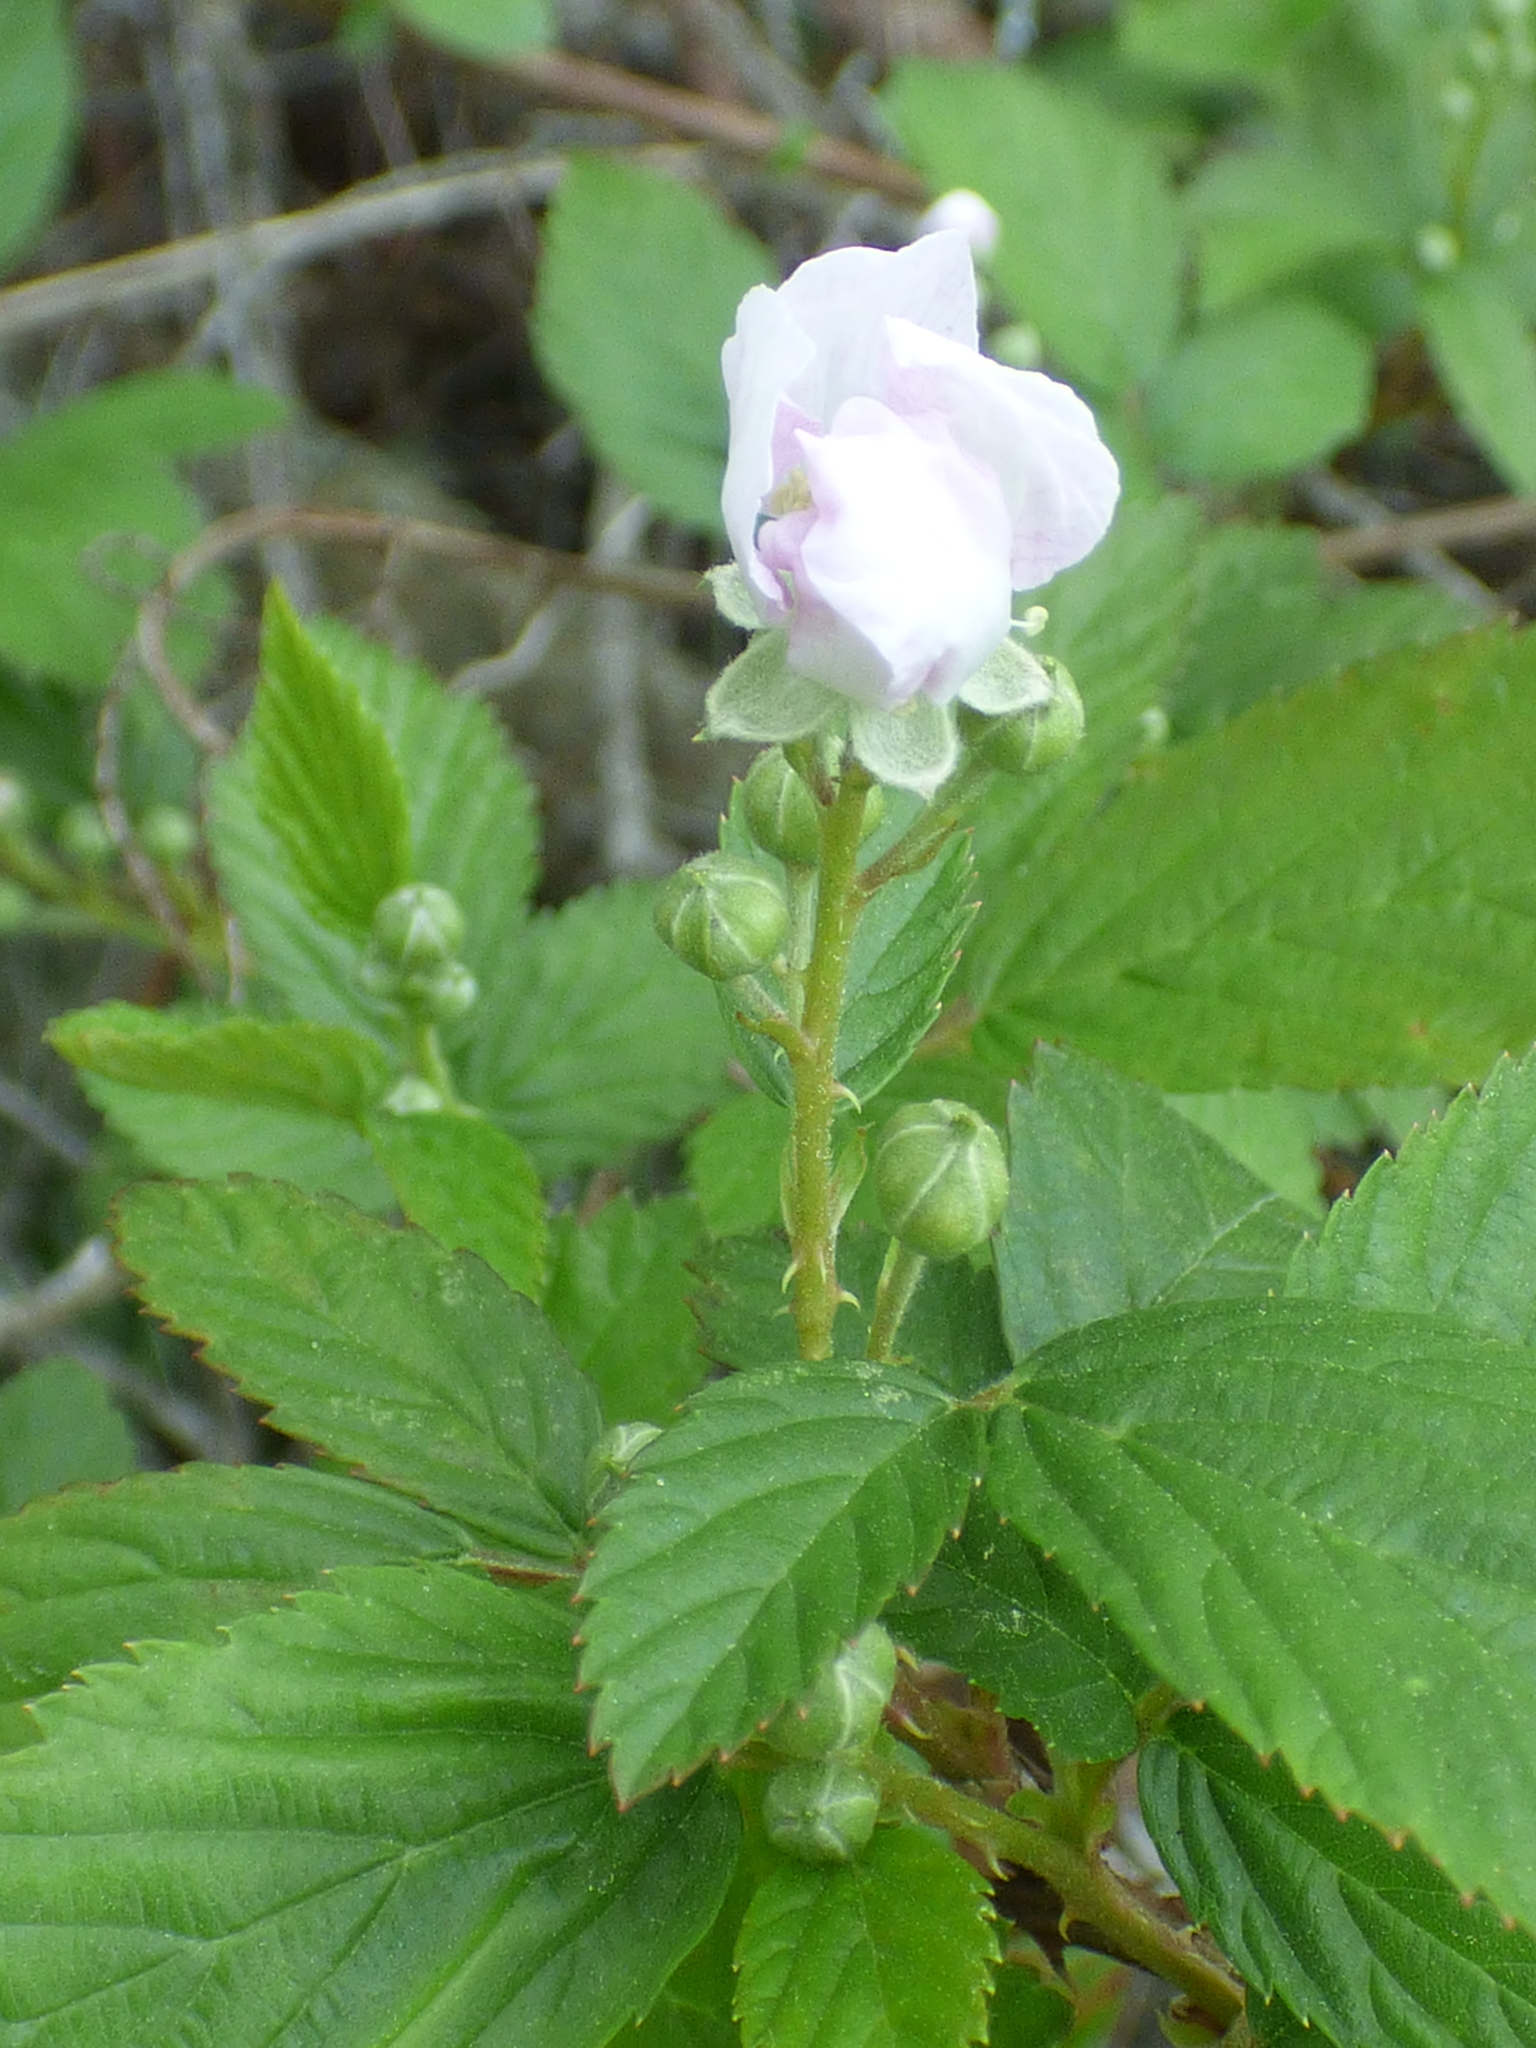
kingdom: Plantae
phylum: Tracheophyta
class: Magnoliopsida
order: Rosales
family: Rosaceae
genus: Rubus
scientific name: Rubus pensilvanicus
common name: Pennsylvania blackberry
